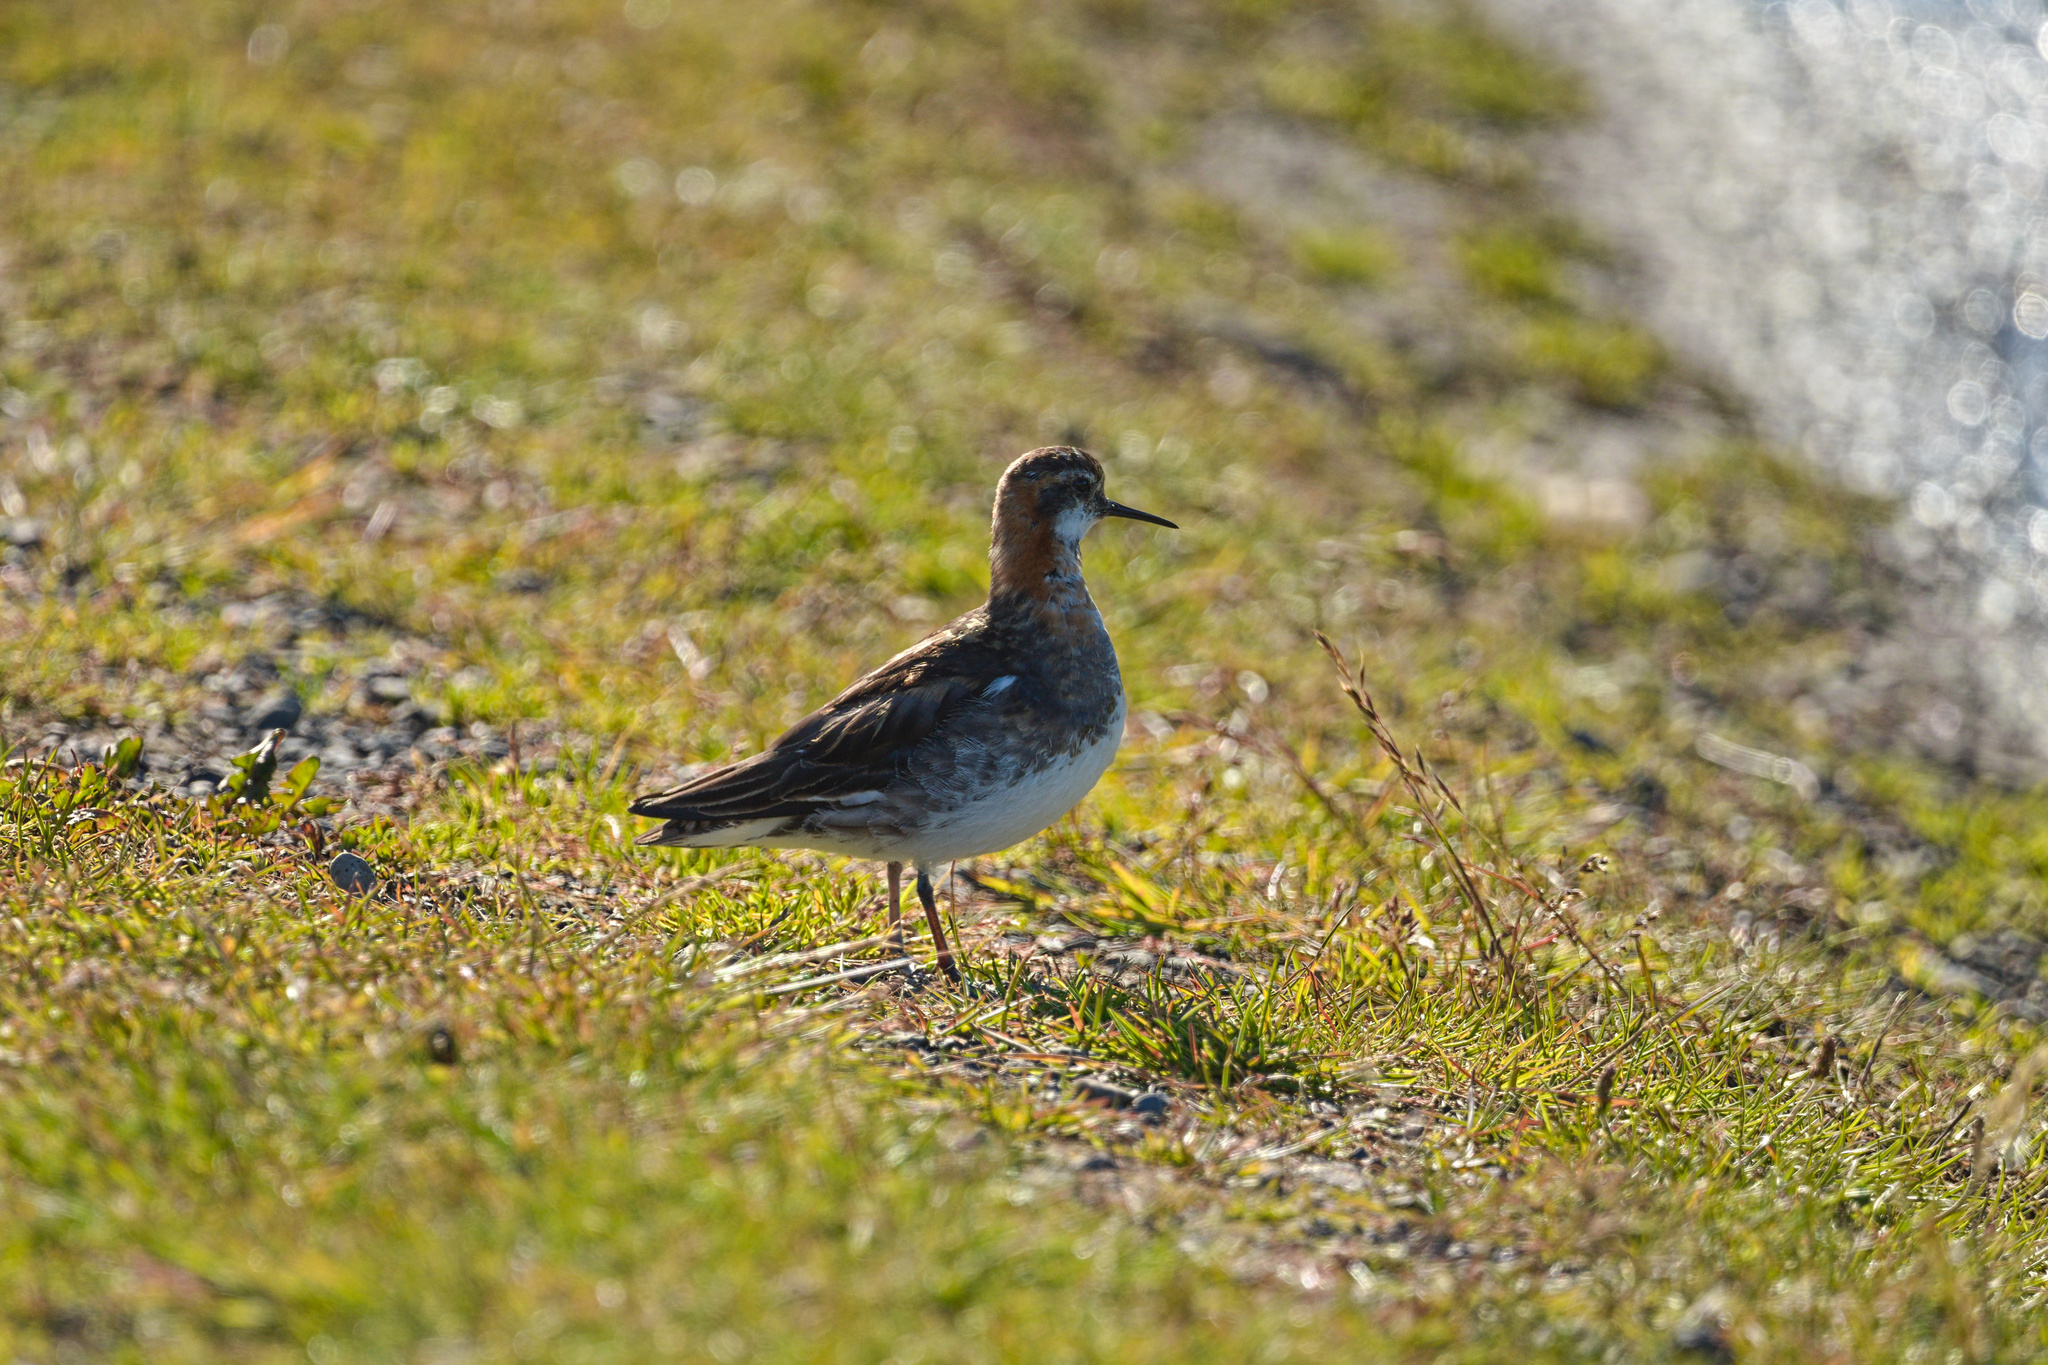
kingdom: Animalia
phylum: Chordata
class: Aves
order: Charadriiformes
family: Scolopacidae
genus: Phalaropus
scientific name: Phalaropus lobatus
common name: Red-necked phalarope
